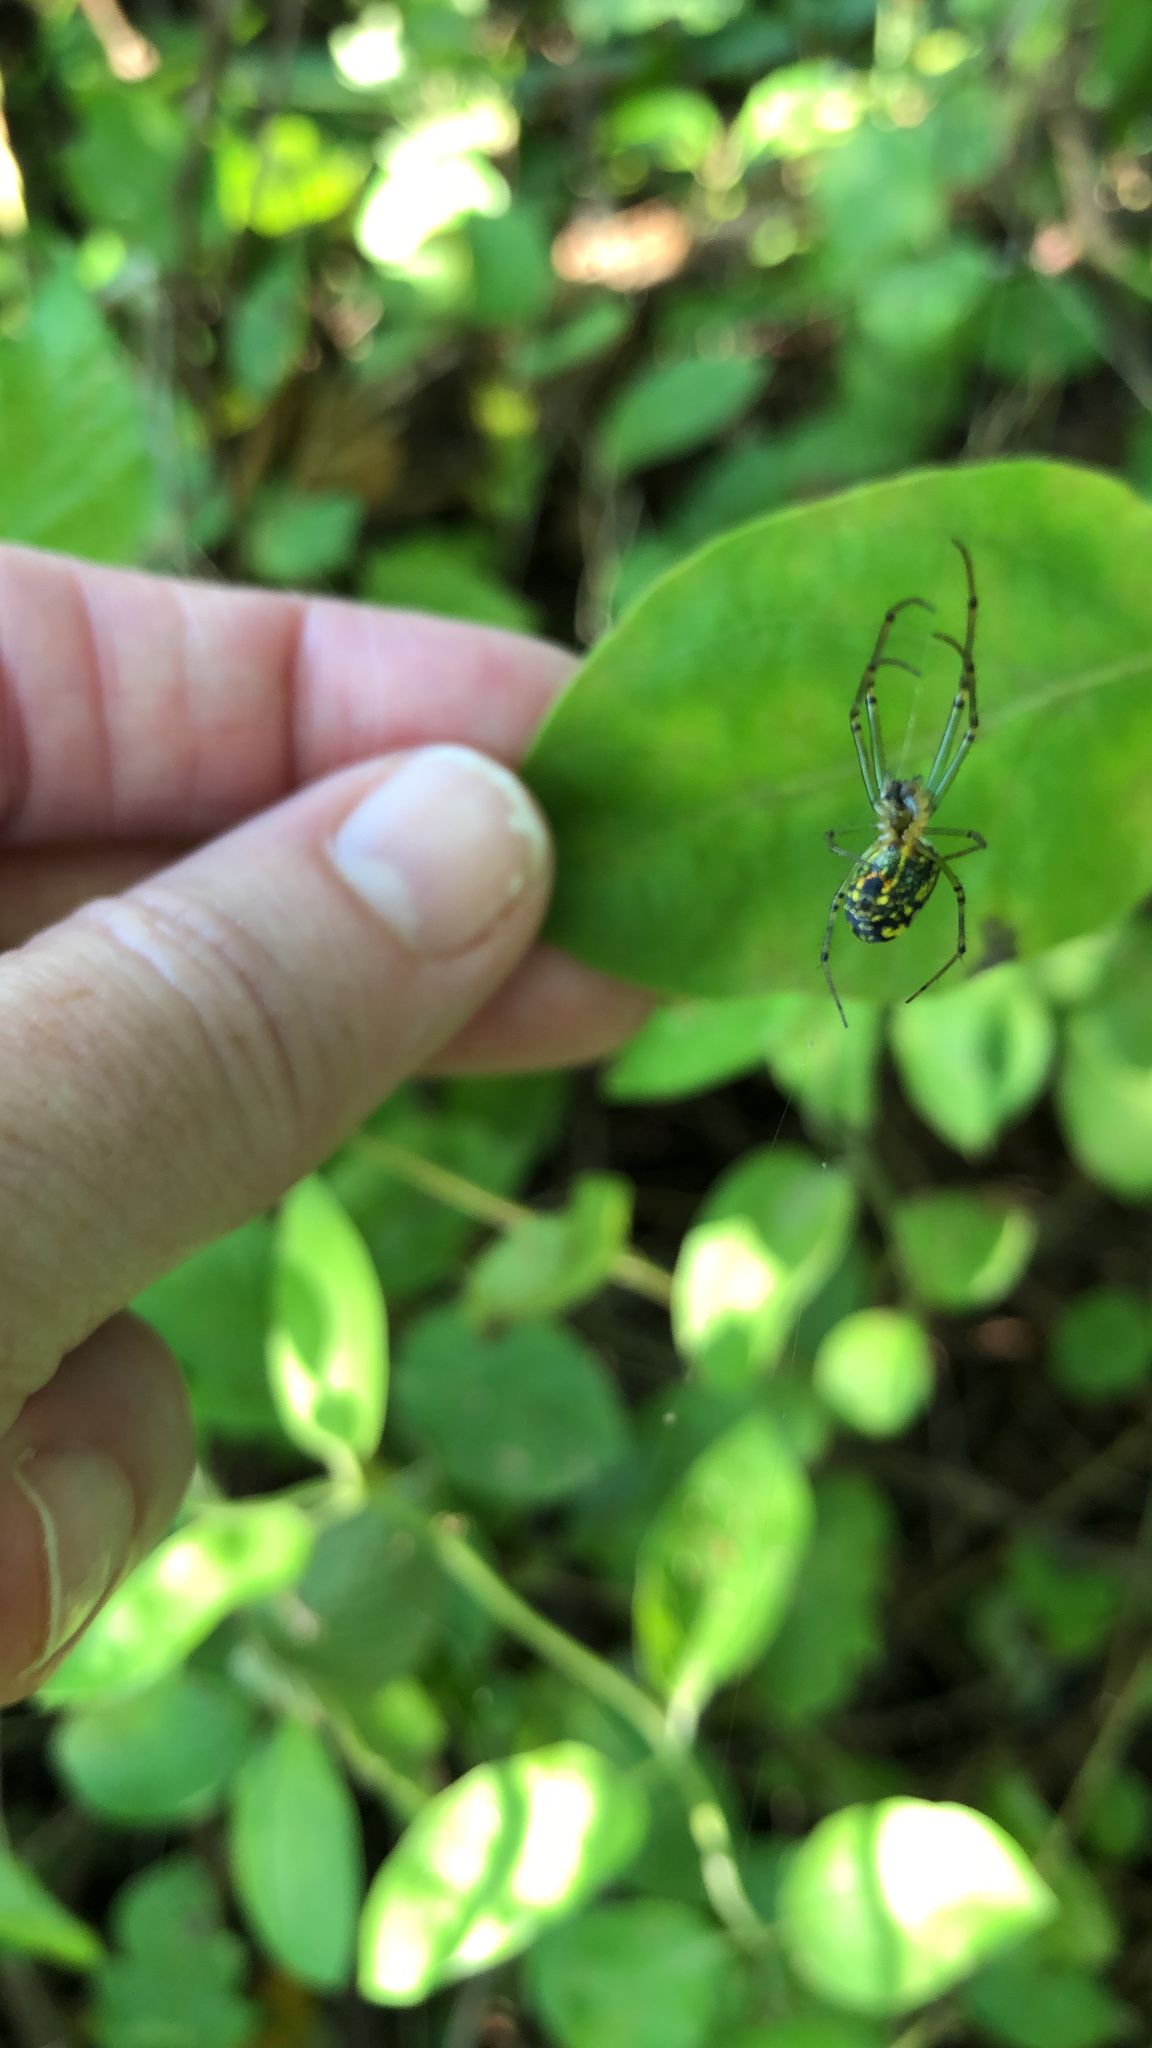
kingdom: Animalia
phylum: Arthropoda
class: Arachnida
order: Araneae
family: Tetragnathidae
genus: Leucauge
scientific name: Leucauge venusta
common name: Longjawed orb weavers
